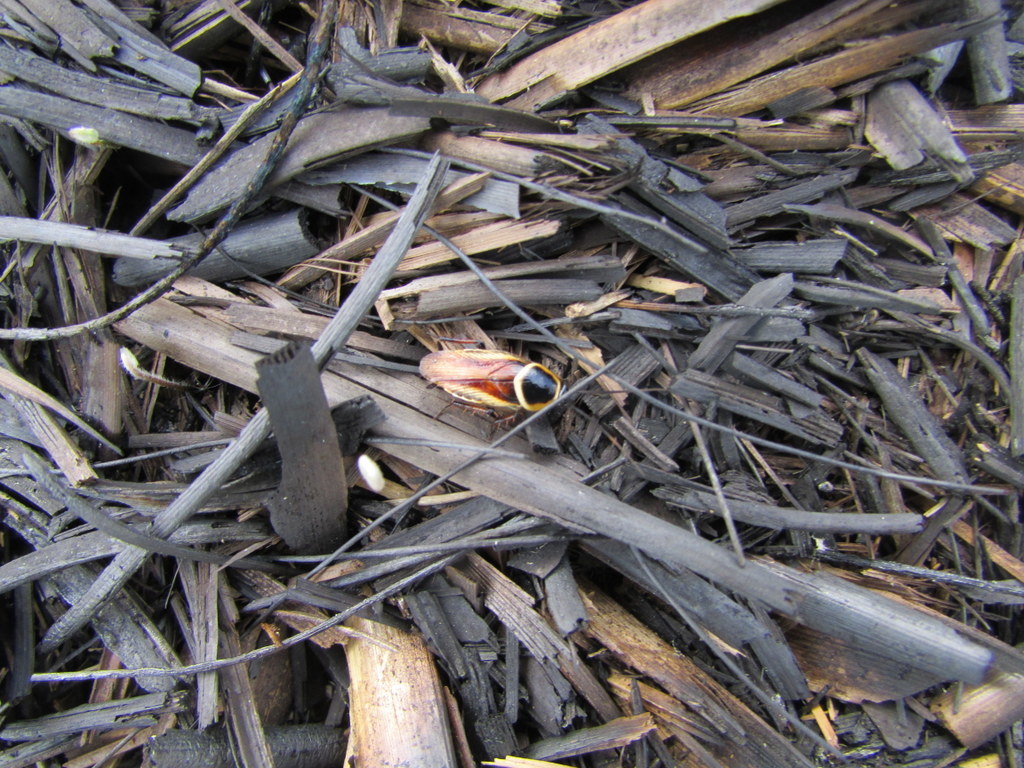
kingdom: Animalia
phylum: Arthropoda
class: Insecta
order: Blattodea
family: Ectobiidae
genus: Pseudomops
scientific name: Pseudomops neglectus
